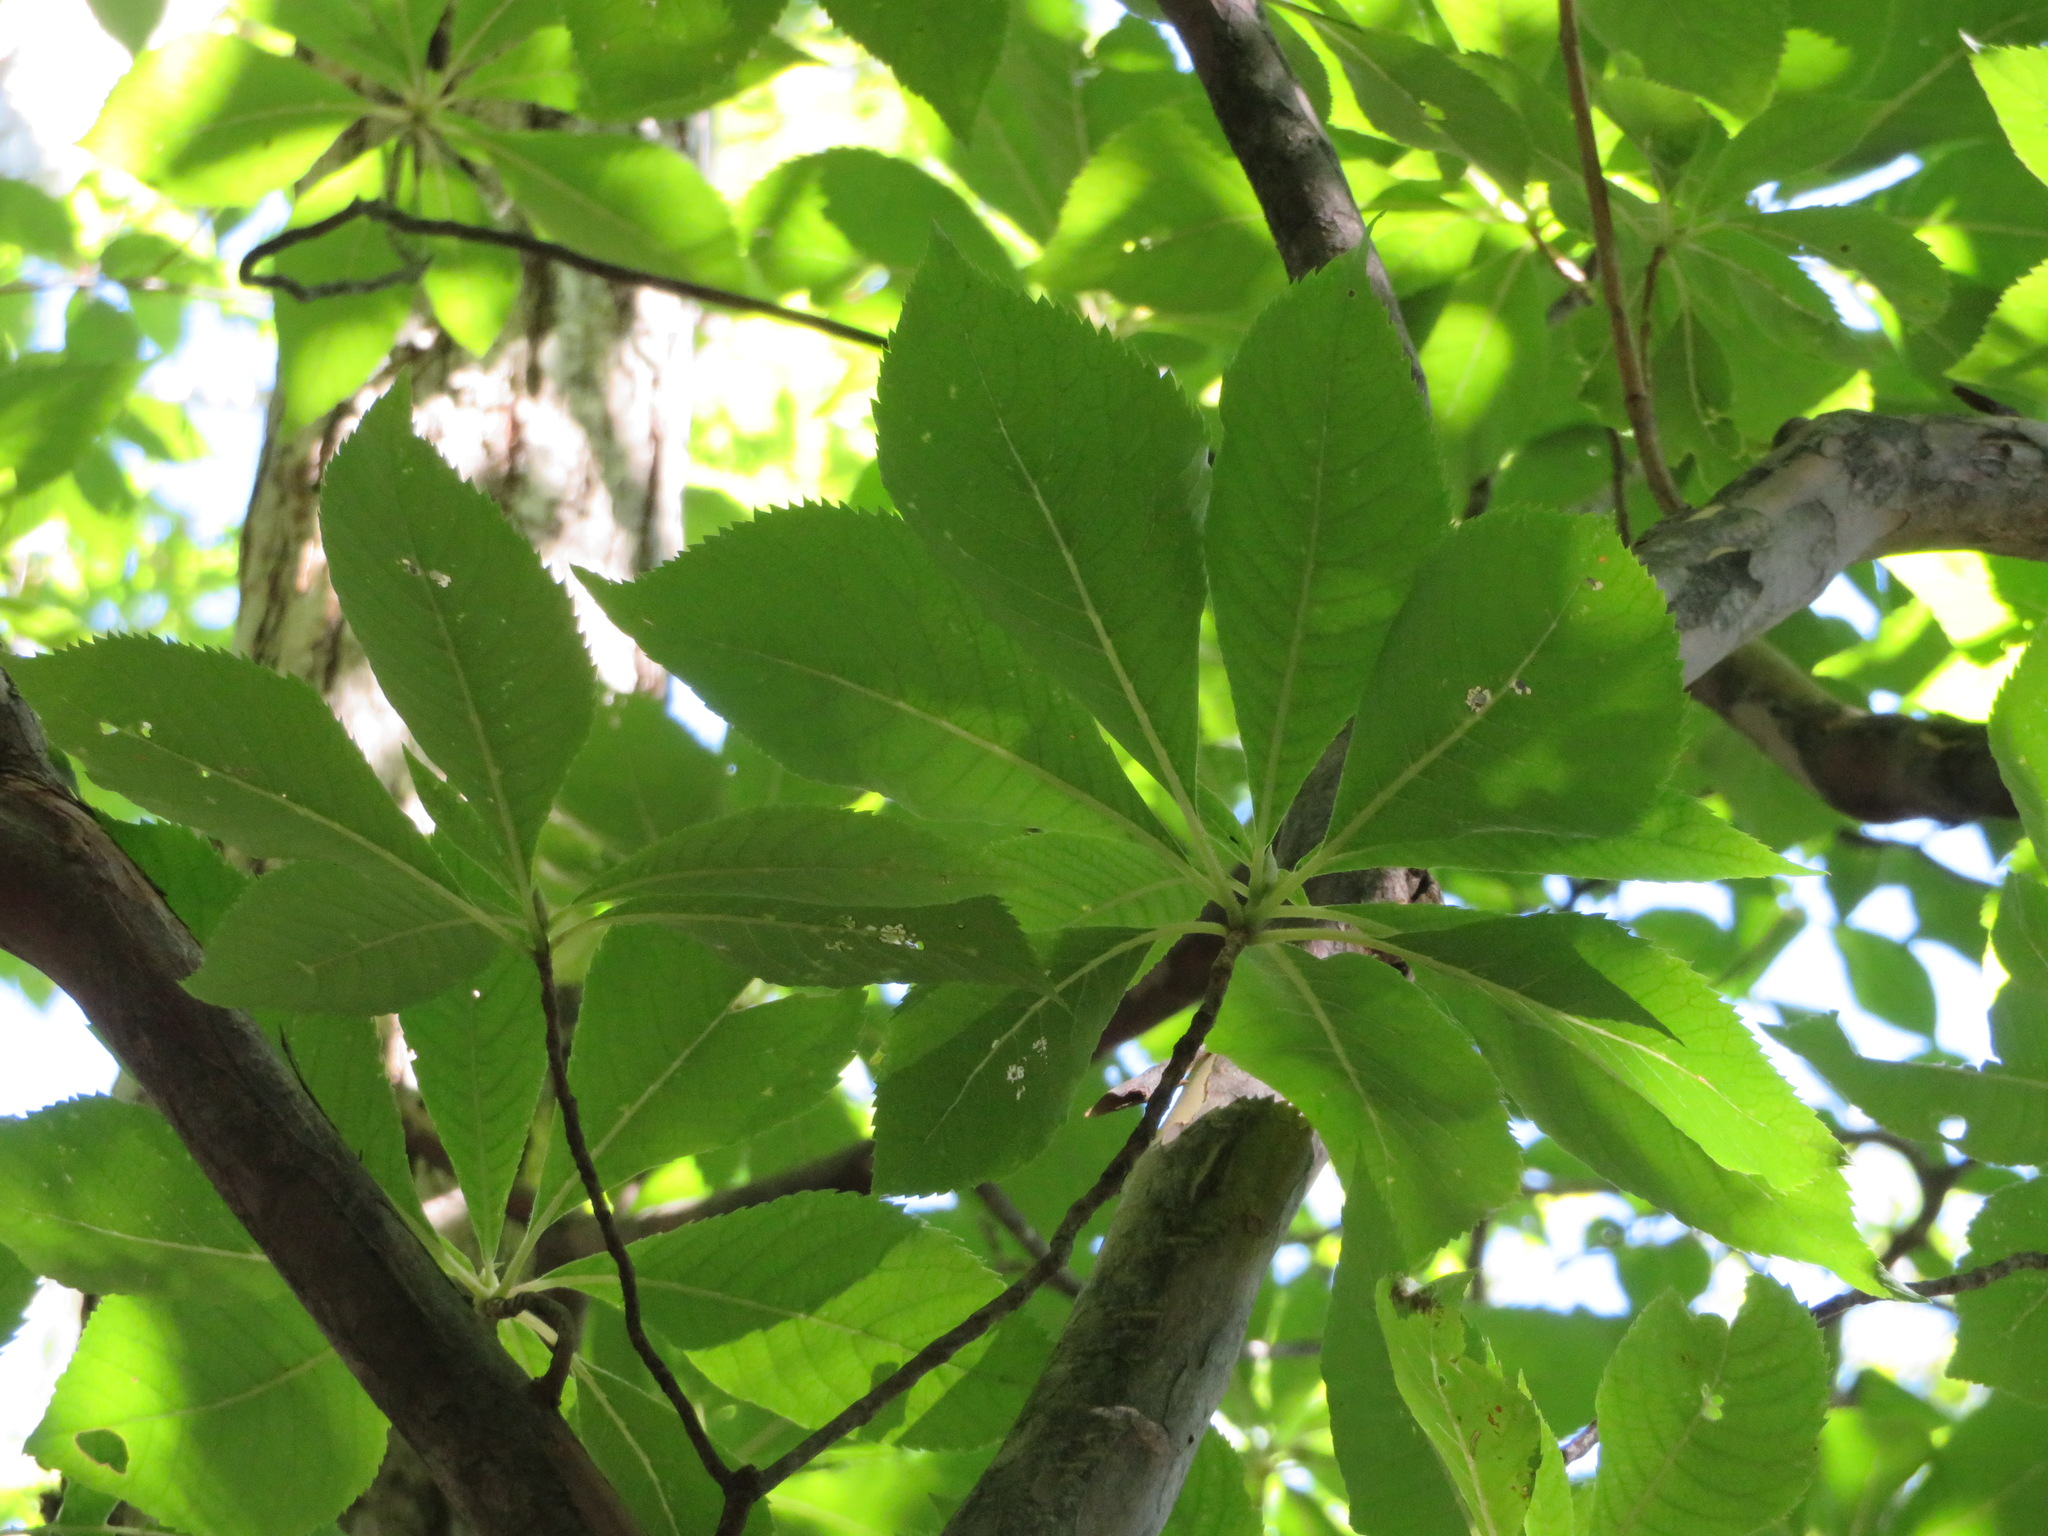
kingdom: Plantae
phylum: Tracheophyta
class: Magnoliopsida
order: Ericales
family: Clethraceae
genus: Clethra
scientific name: Clethra barbinervis
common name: Japanese clethra
